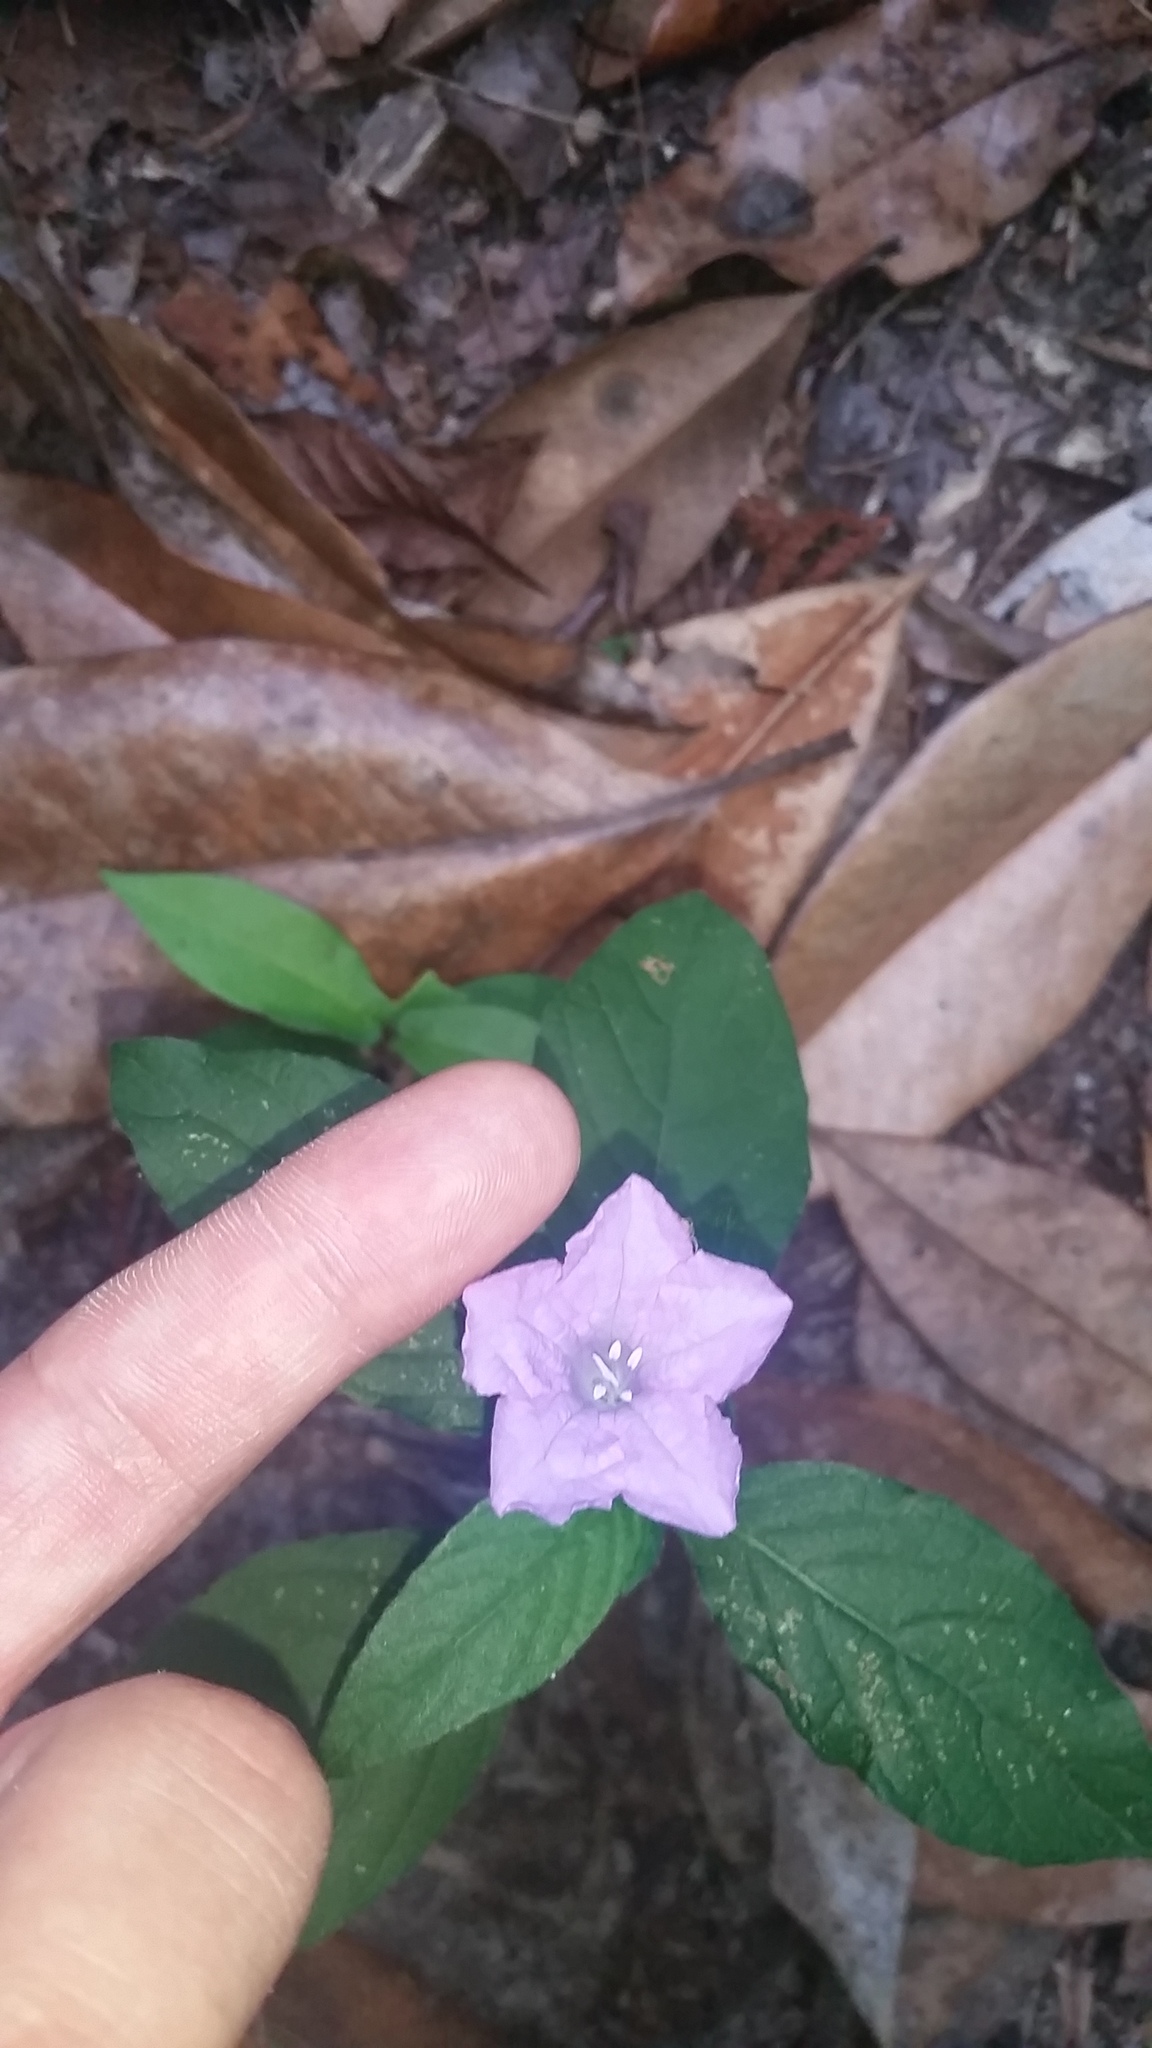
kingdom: Plantae
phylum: Tracheophyta
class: Magnoliopsida
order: Lamiales
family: Acanthaceae
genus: Ruellia
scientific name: Ruellia caroliniensis
